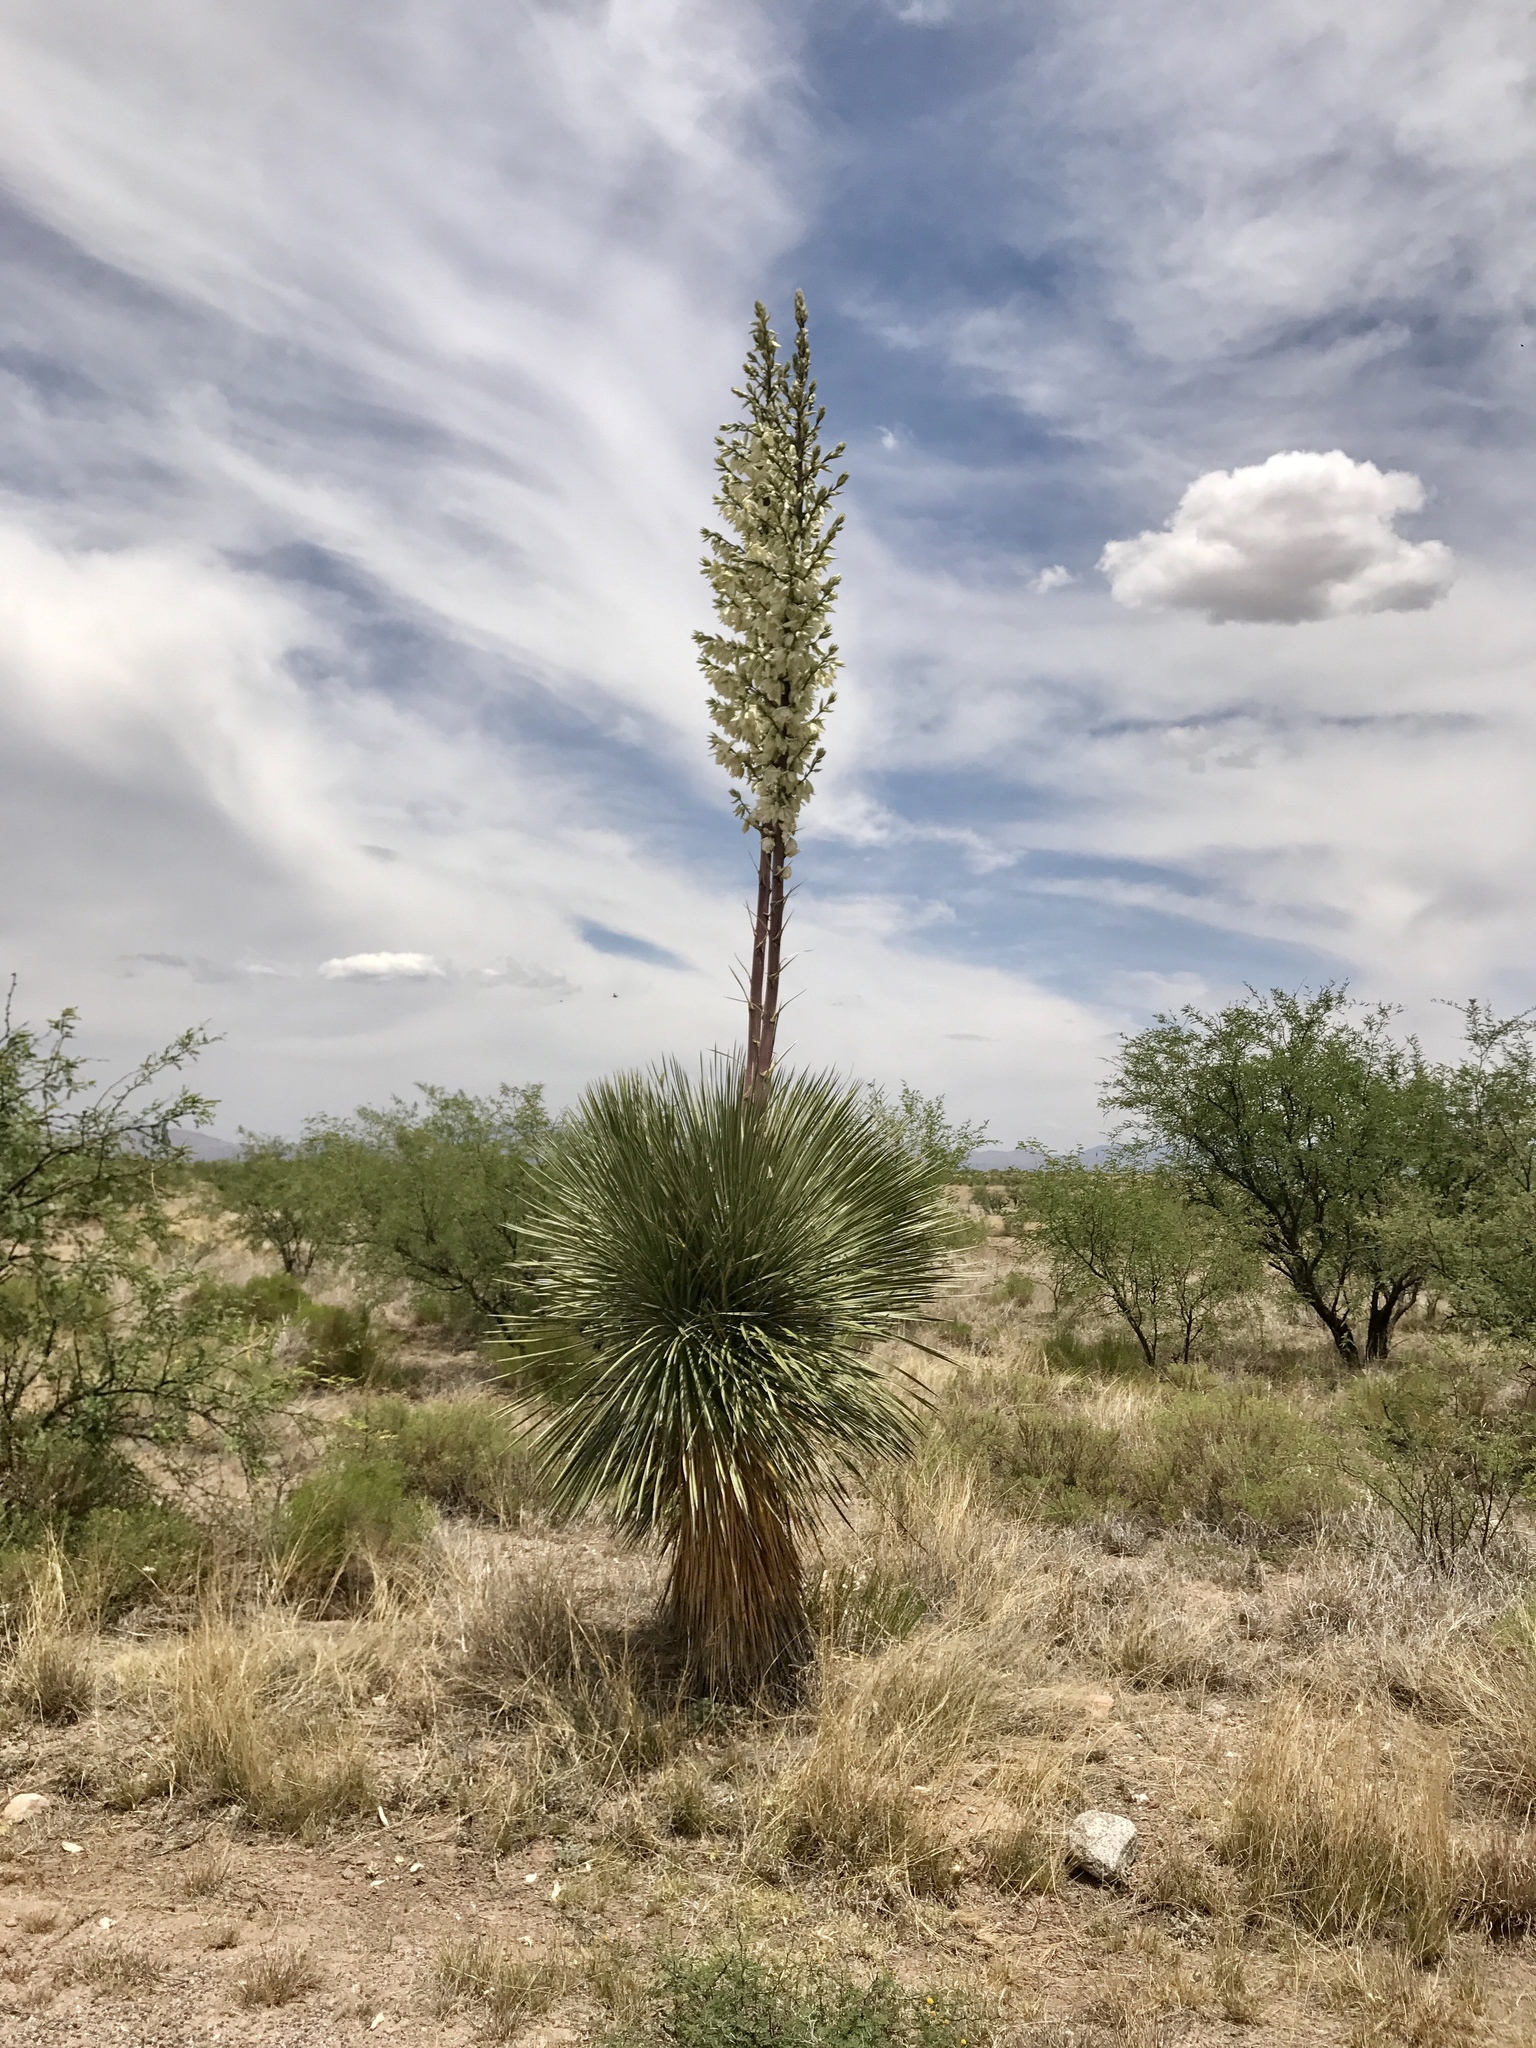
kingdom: Plantae
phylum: Tracheophyta
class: Liliopsida
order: Asparagales
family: Asparagaceae
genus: Yucca
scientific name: Yucca elata
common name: Palmella
